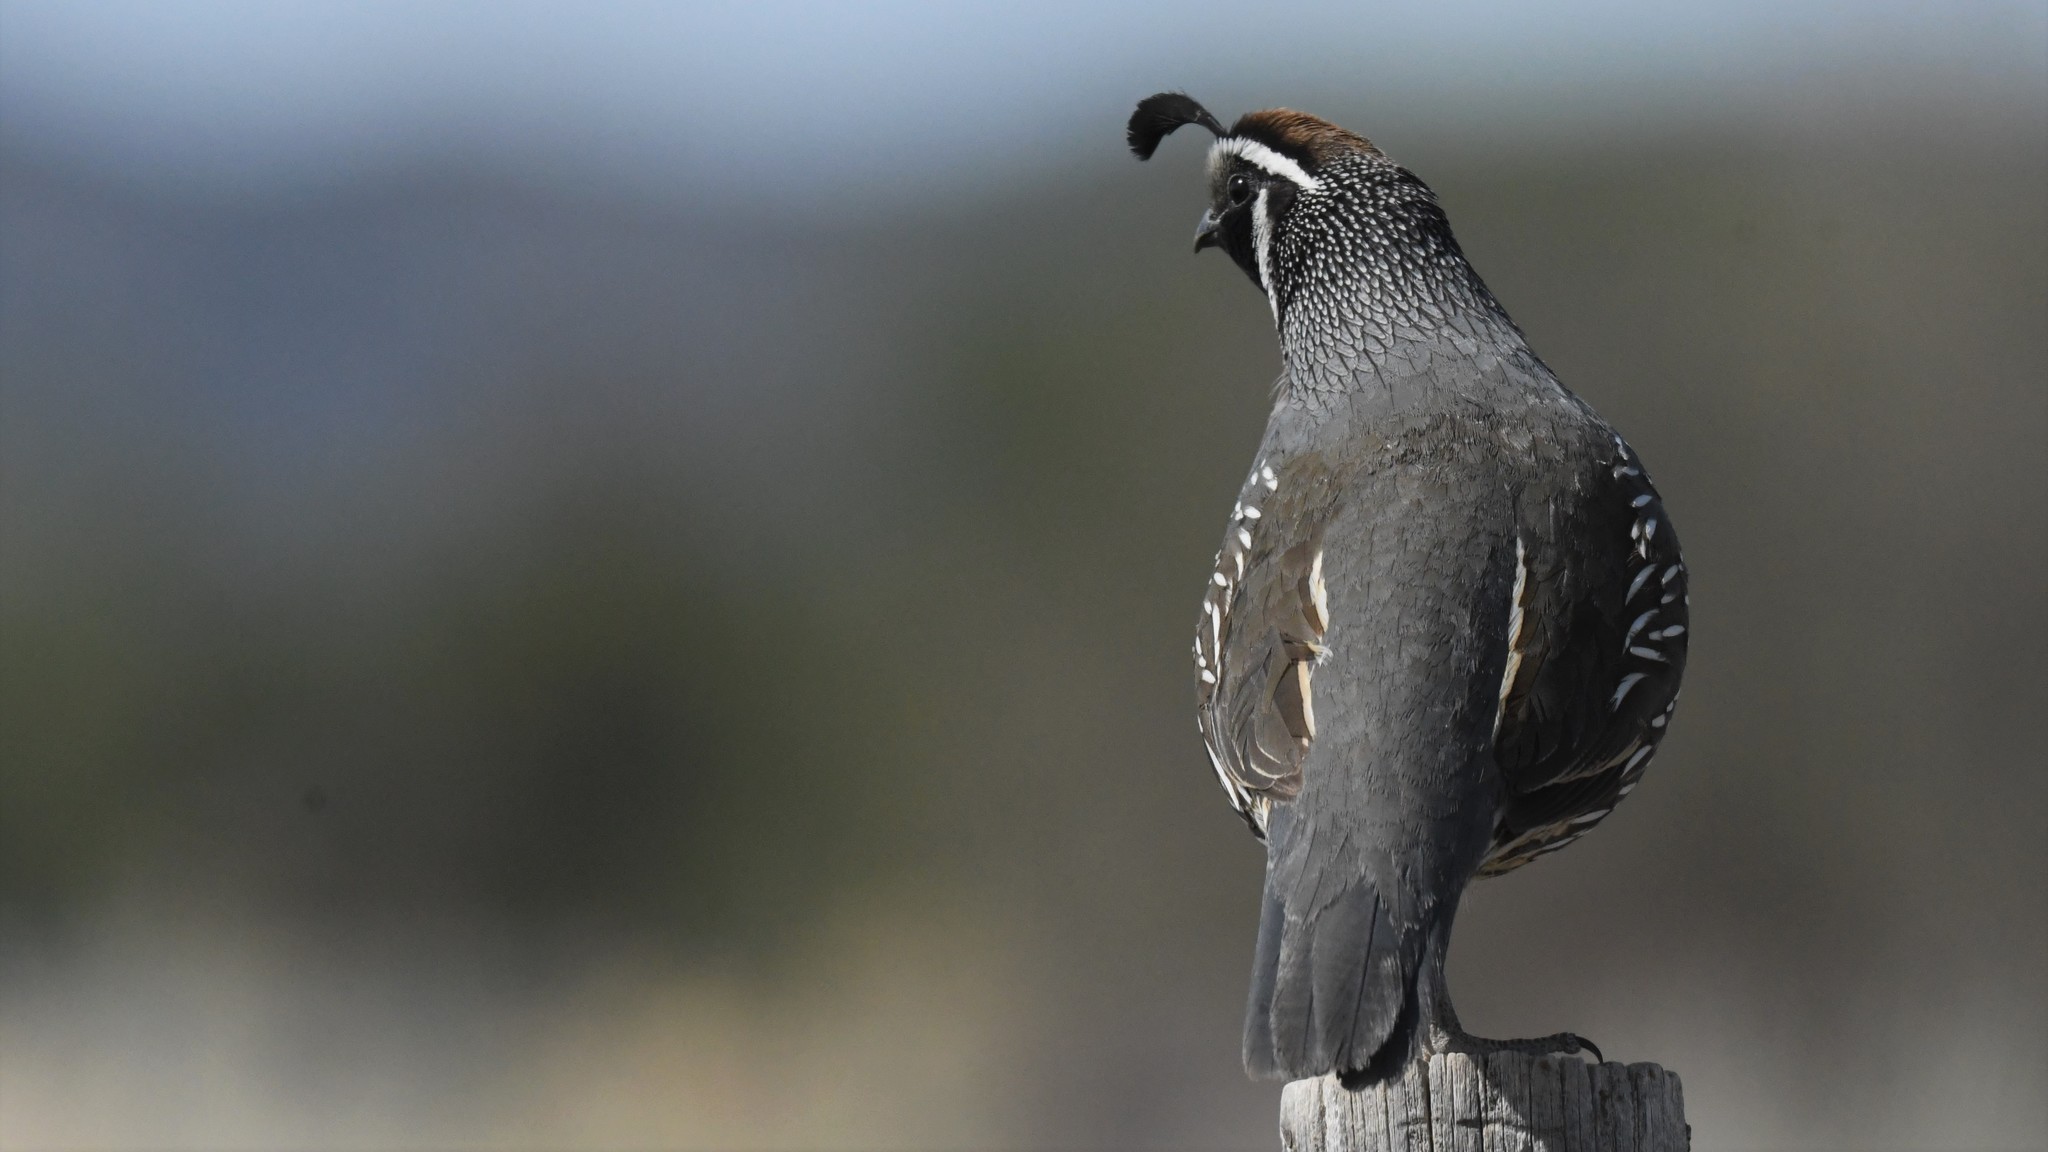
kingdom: Animalia
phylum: Chordata
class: Aves
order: Galliformes
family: Odontophoridae
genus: Callipepla
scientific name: Callipepla californica
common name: California quail
